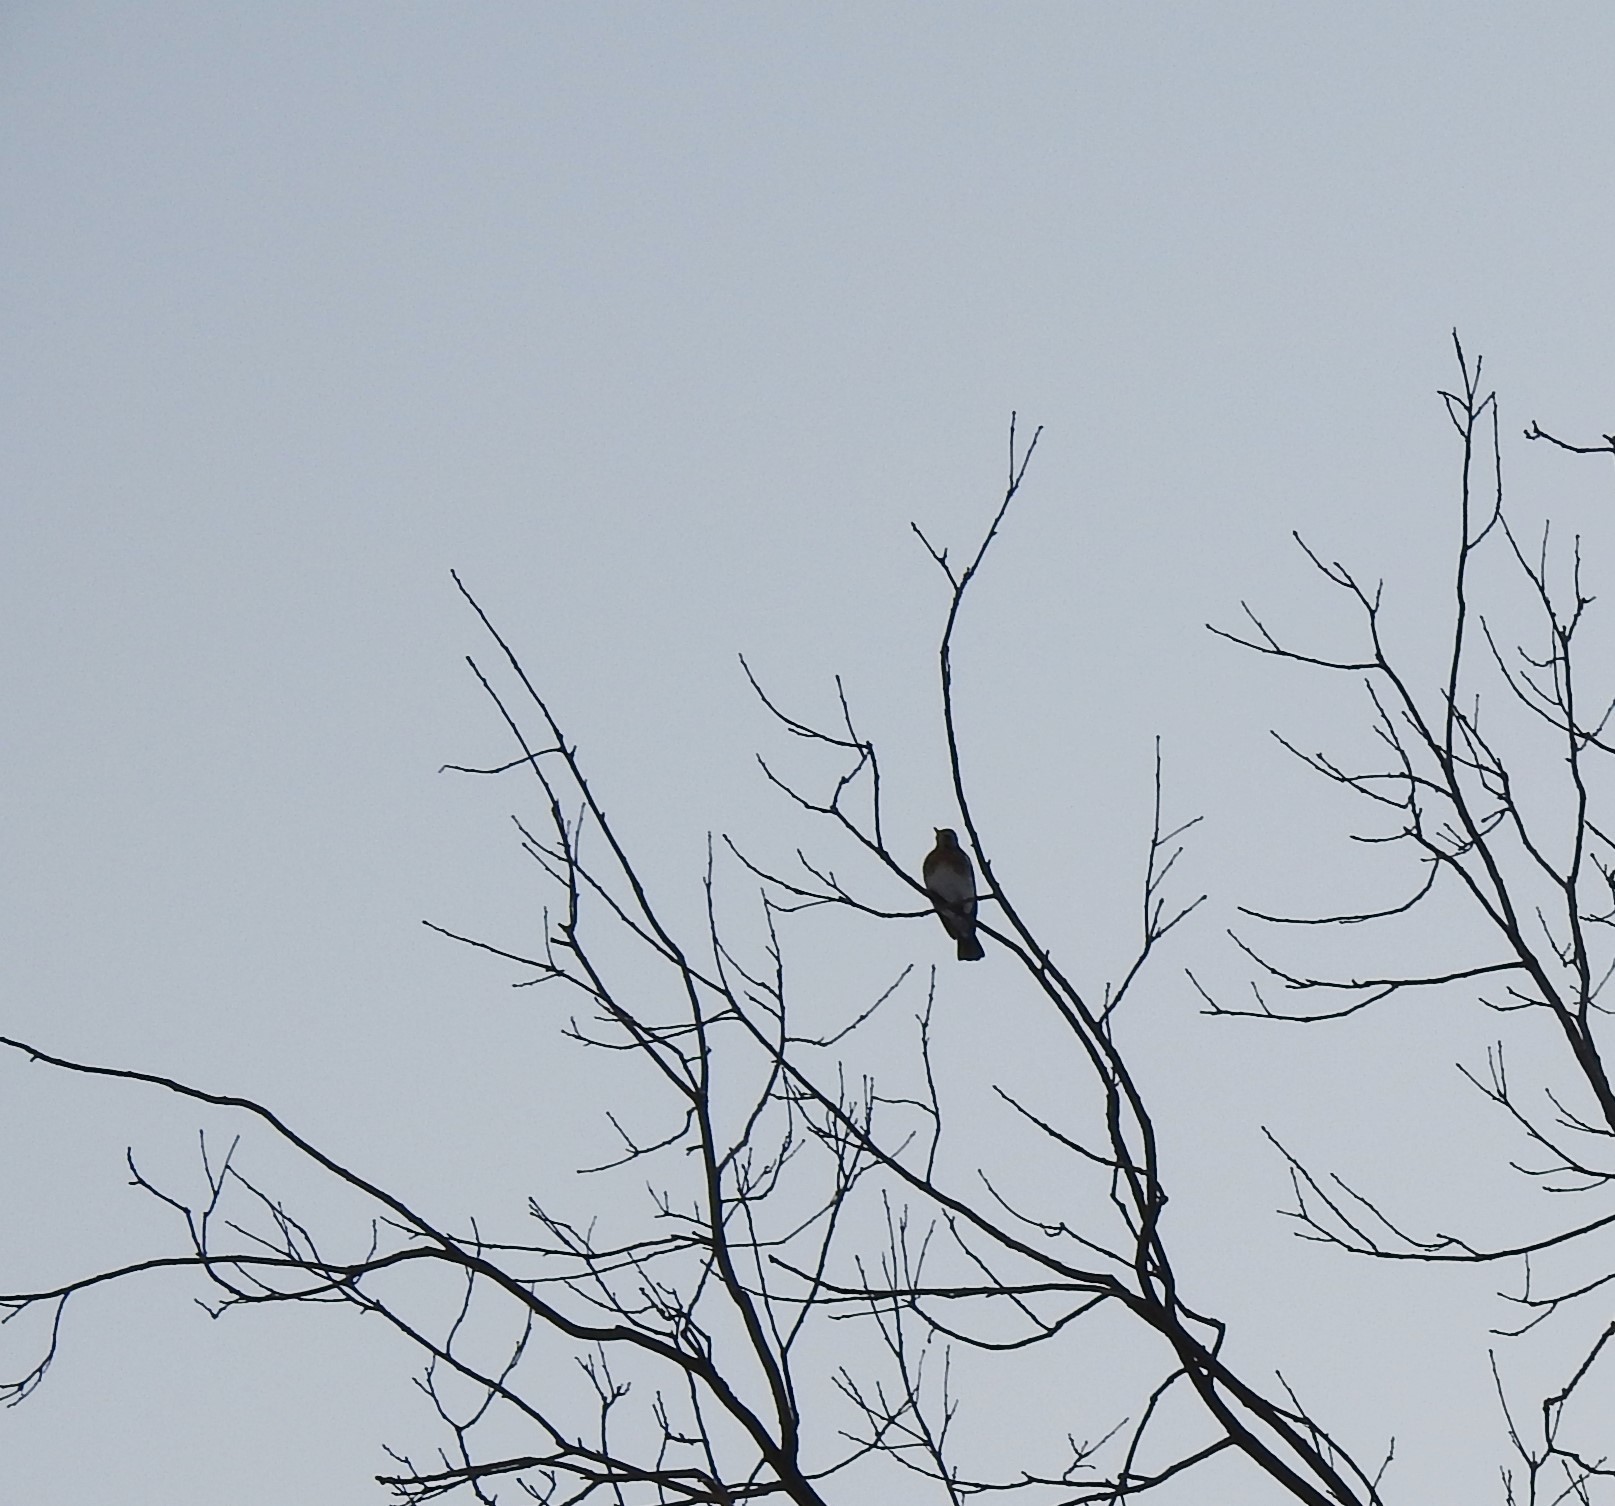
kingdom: Animalia
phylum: Chordata
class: Aves
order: Passeriformes
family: Turdidae
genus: Turdus
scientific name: Turdus pilaris
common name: Fieldfare
